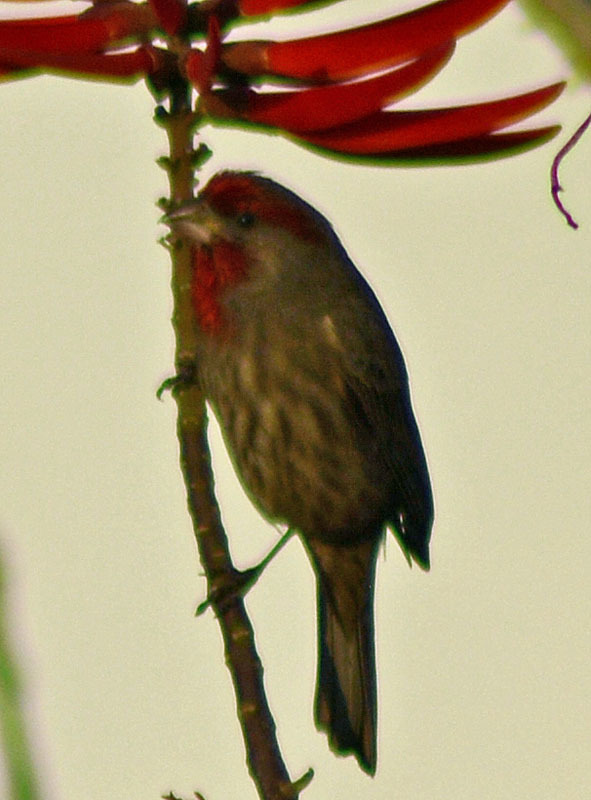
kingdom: Animalia
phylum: Chordata
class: Aves
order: Passeriformes
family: Fringillidae
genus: Haemorhous
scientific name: Haemorhous mexicanus
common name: House finch
